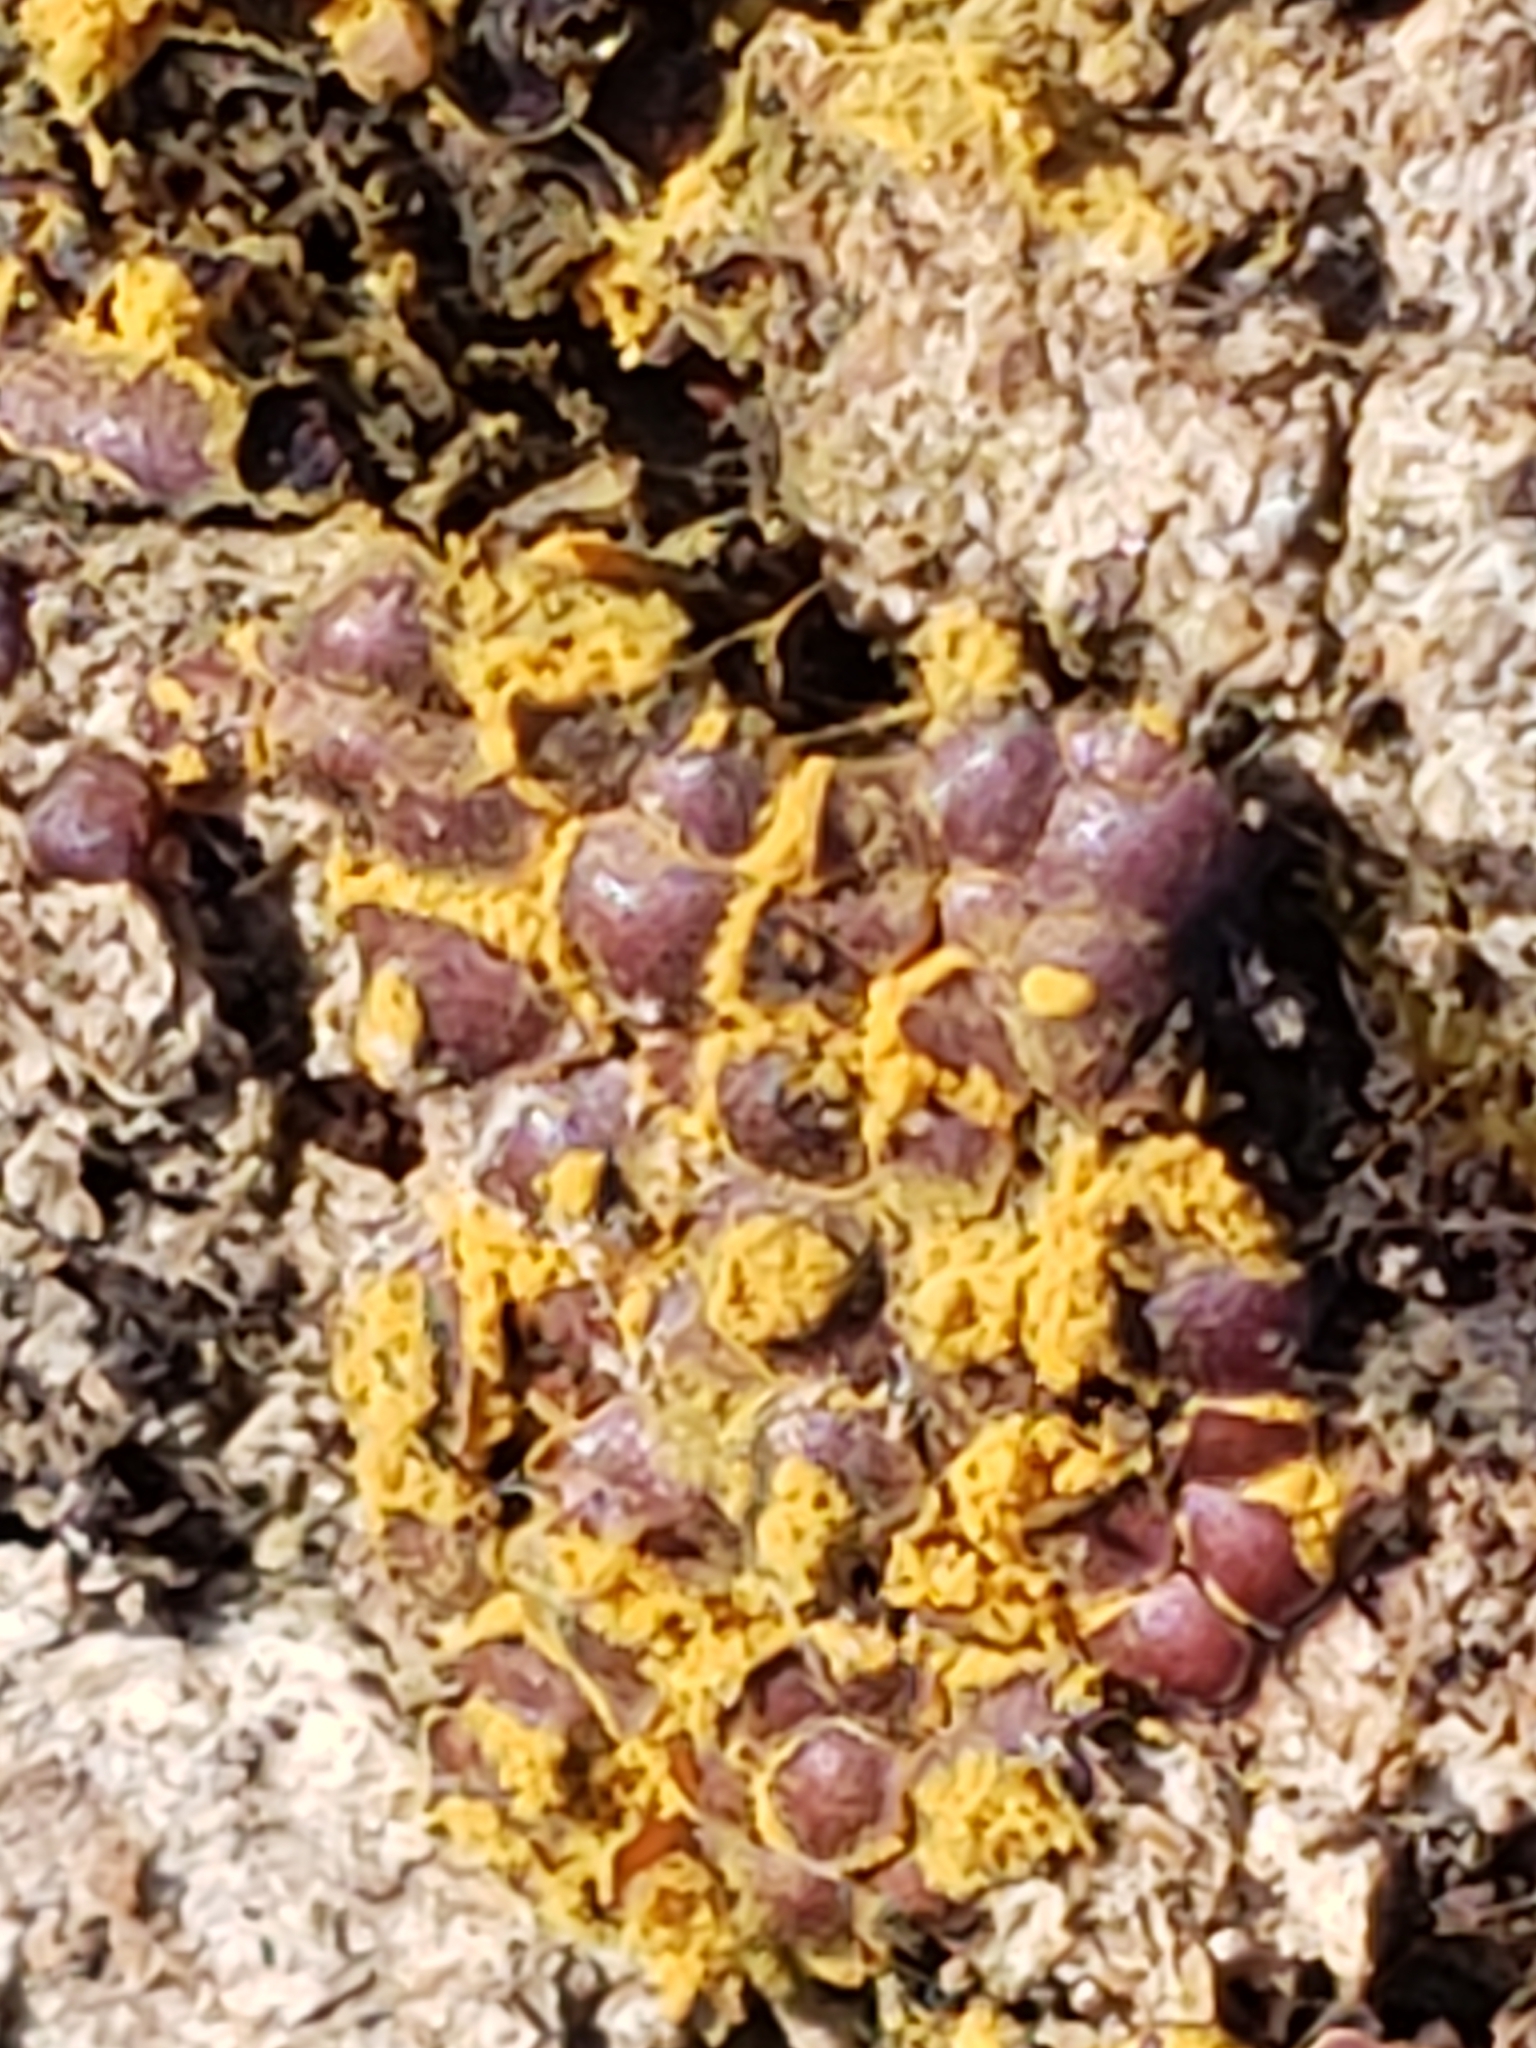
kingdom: Protozoa
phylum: Mycetozoa
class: Myxomycetes
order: Trichiales
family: Trichiaceae
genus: Perichaena
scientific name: Perichaena depressa
